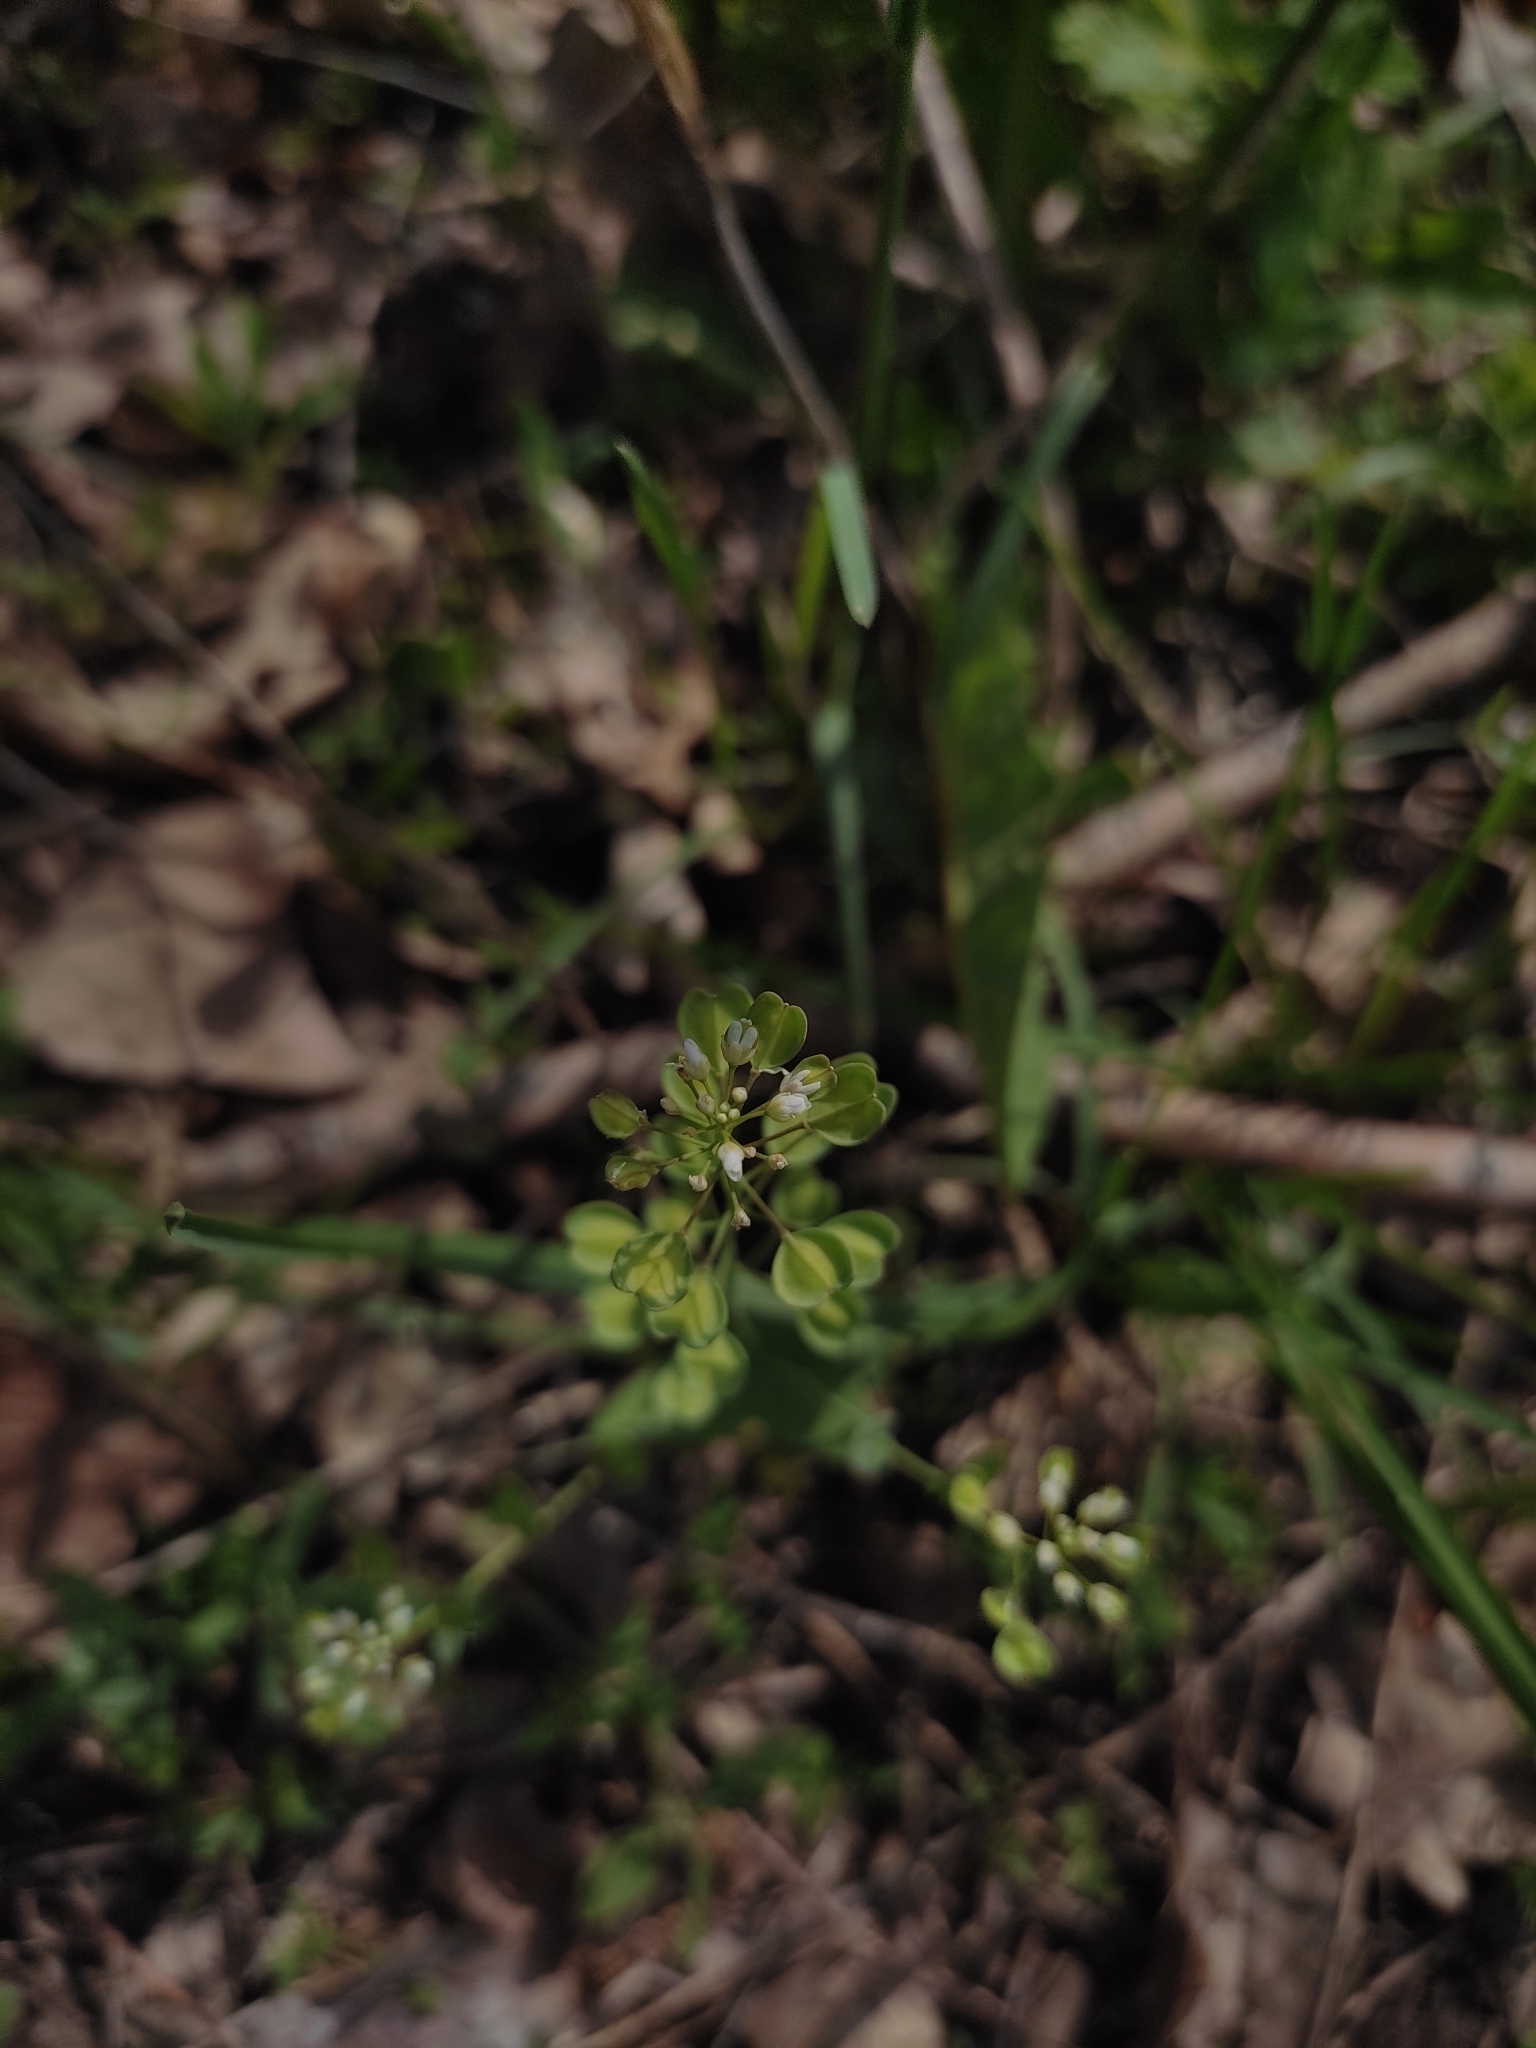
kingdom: Plantae
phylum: Tracheophyta
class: Magnoliopsida
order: Brassicales
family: Brassicaceae
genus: Noccaea
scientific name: Noccaea perfoliata
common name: Perfoliate pennycress
